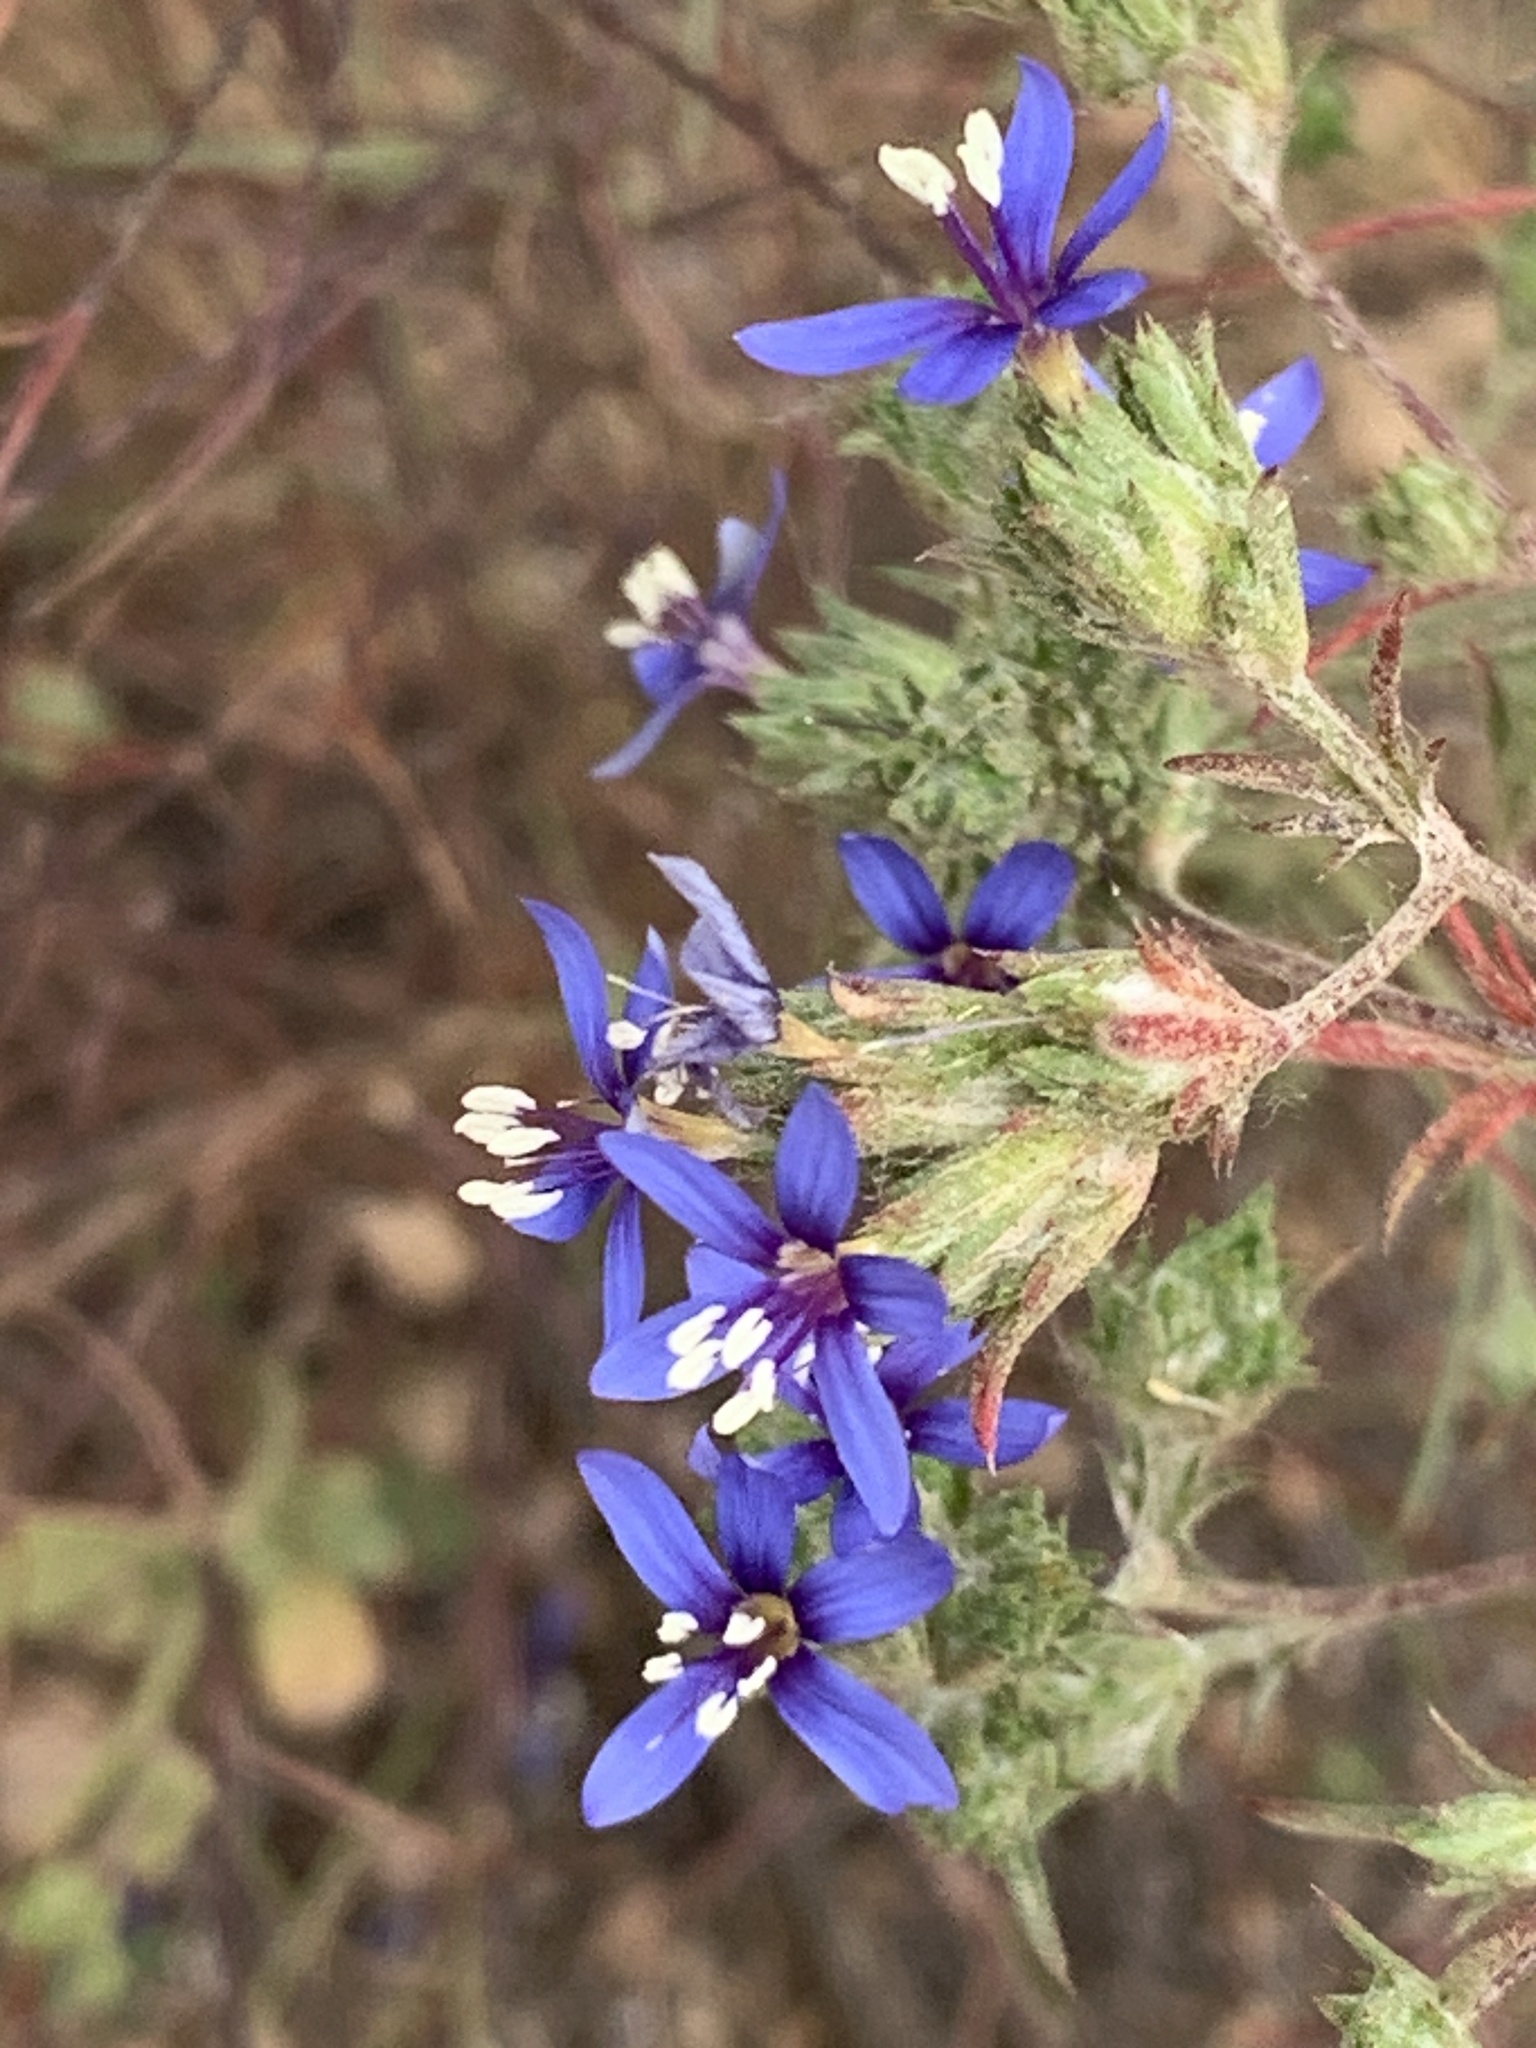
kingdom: Plantae
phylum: Tracheophyta
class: Magnoliopsida
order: Ericales
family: Polemoniaceae
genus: Eriastrum
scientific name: Eriastrum sapphirinum
